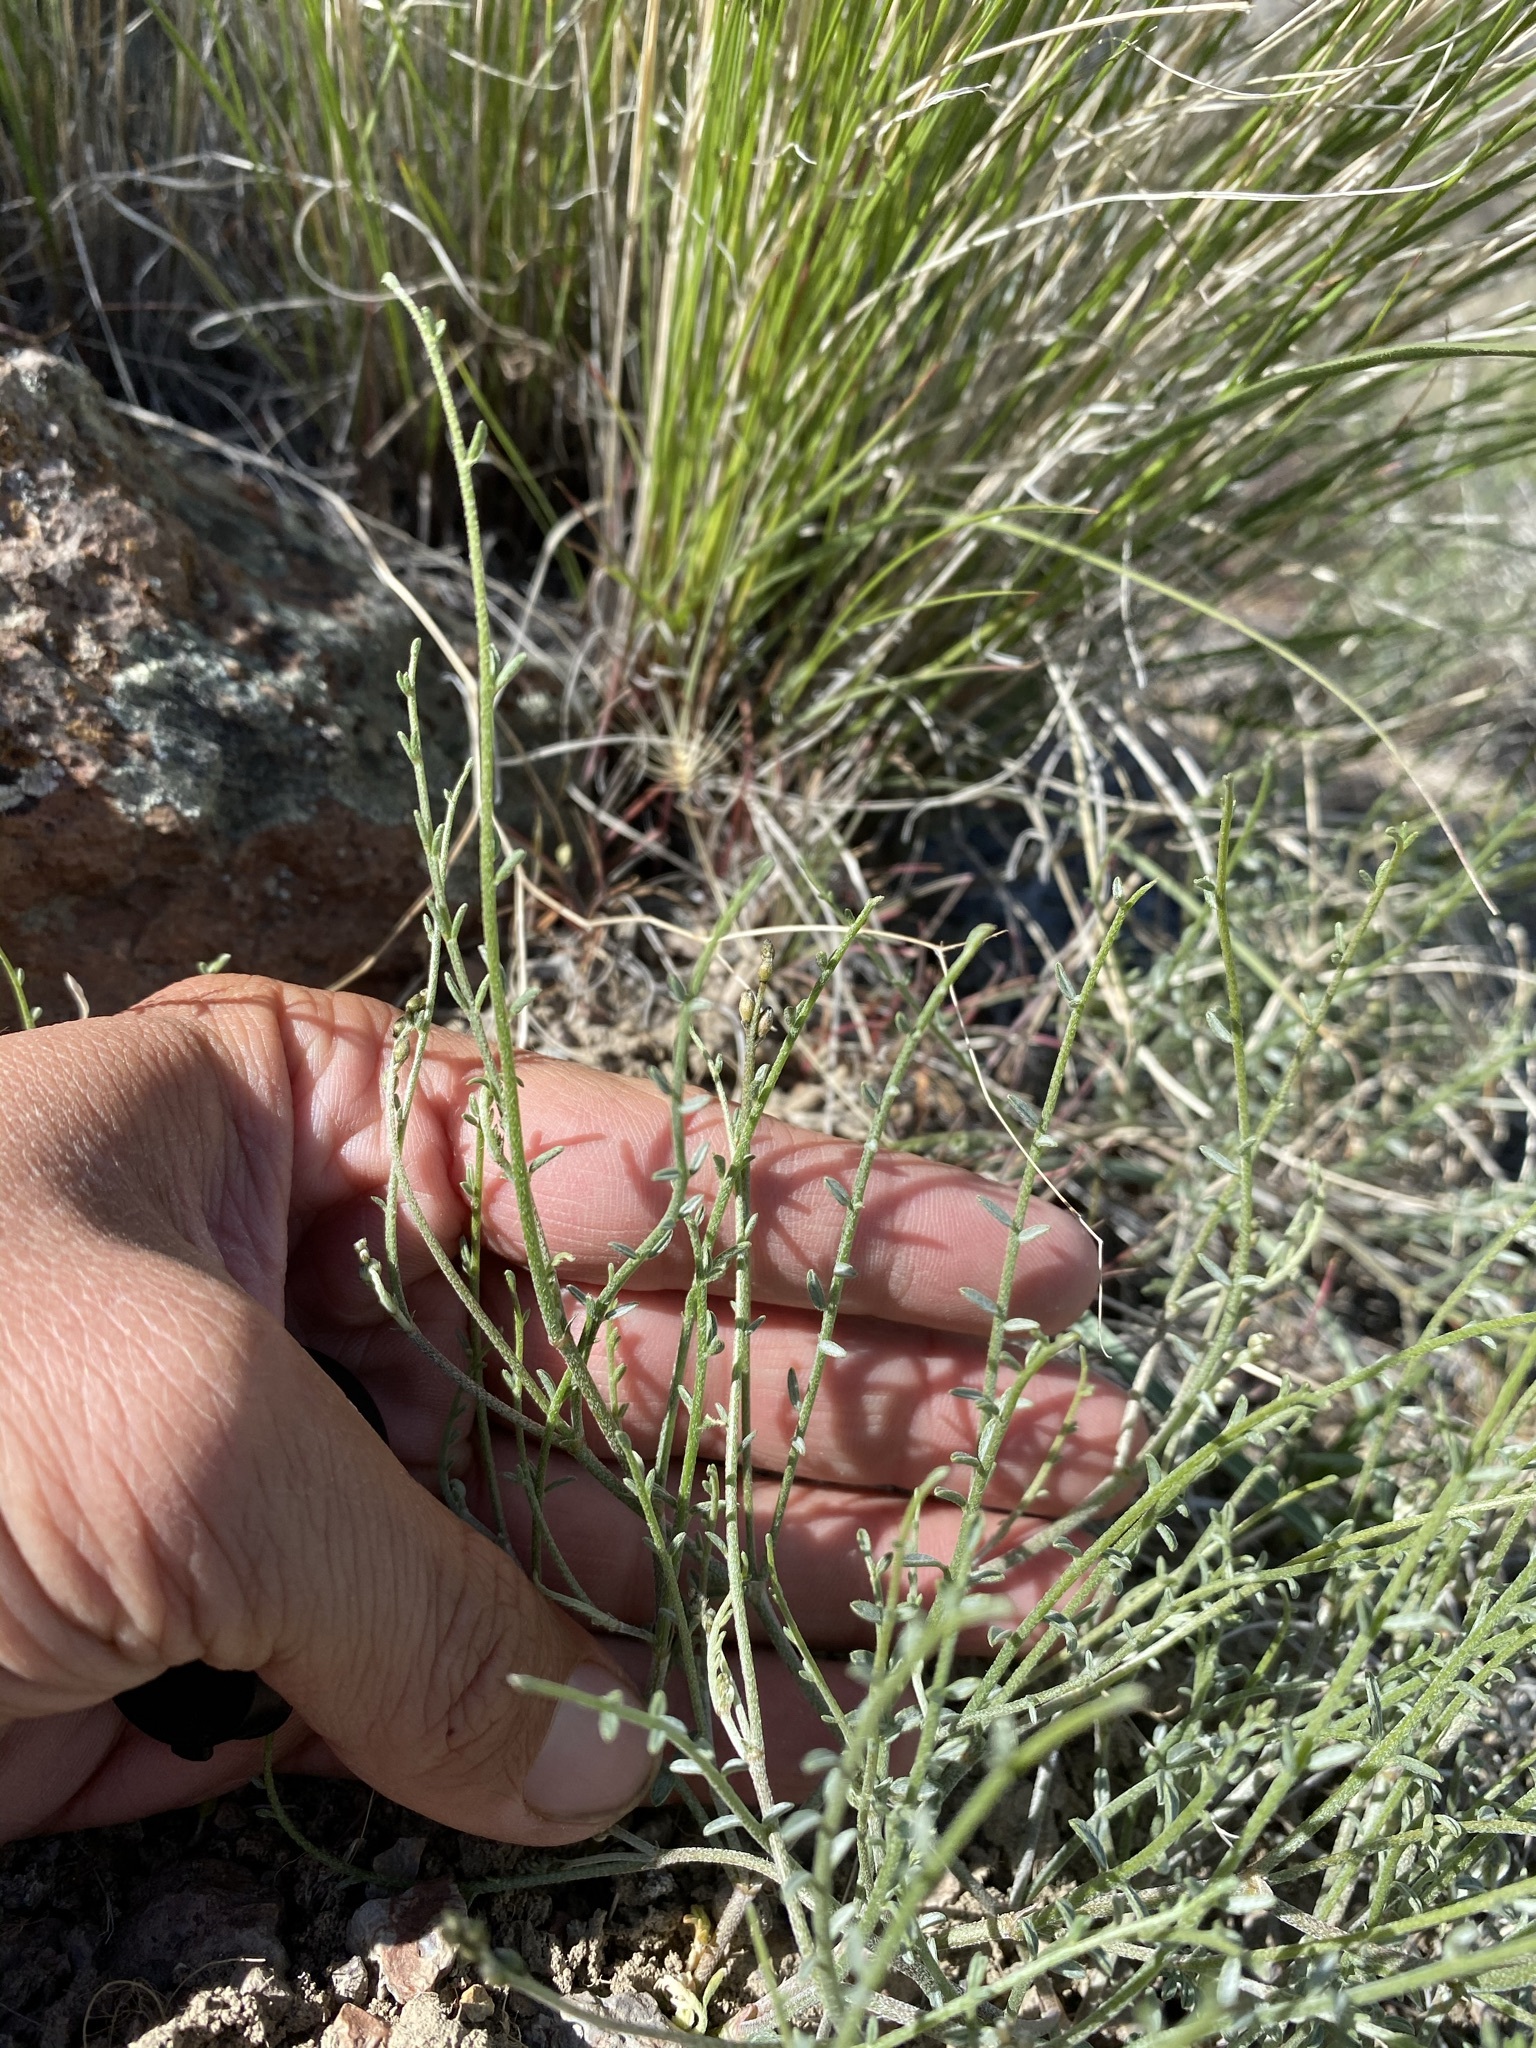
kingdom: Plantae
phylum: Tracheophyta
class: Magnoliopsida
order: Fabales
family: Fabaceae
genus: Astragalus
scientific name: Astragalus sterilis
